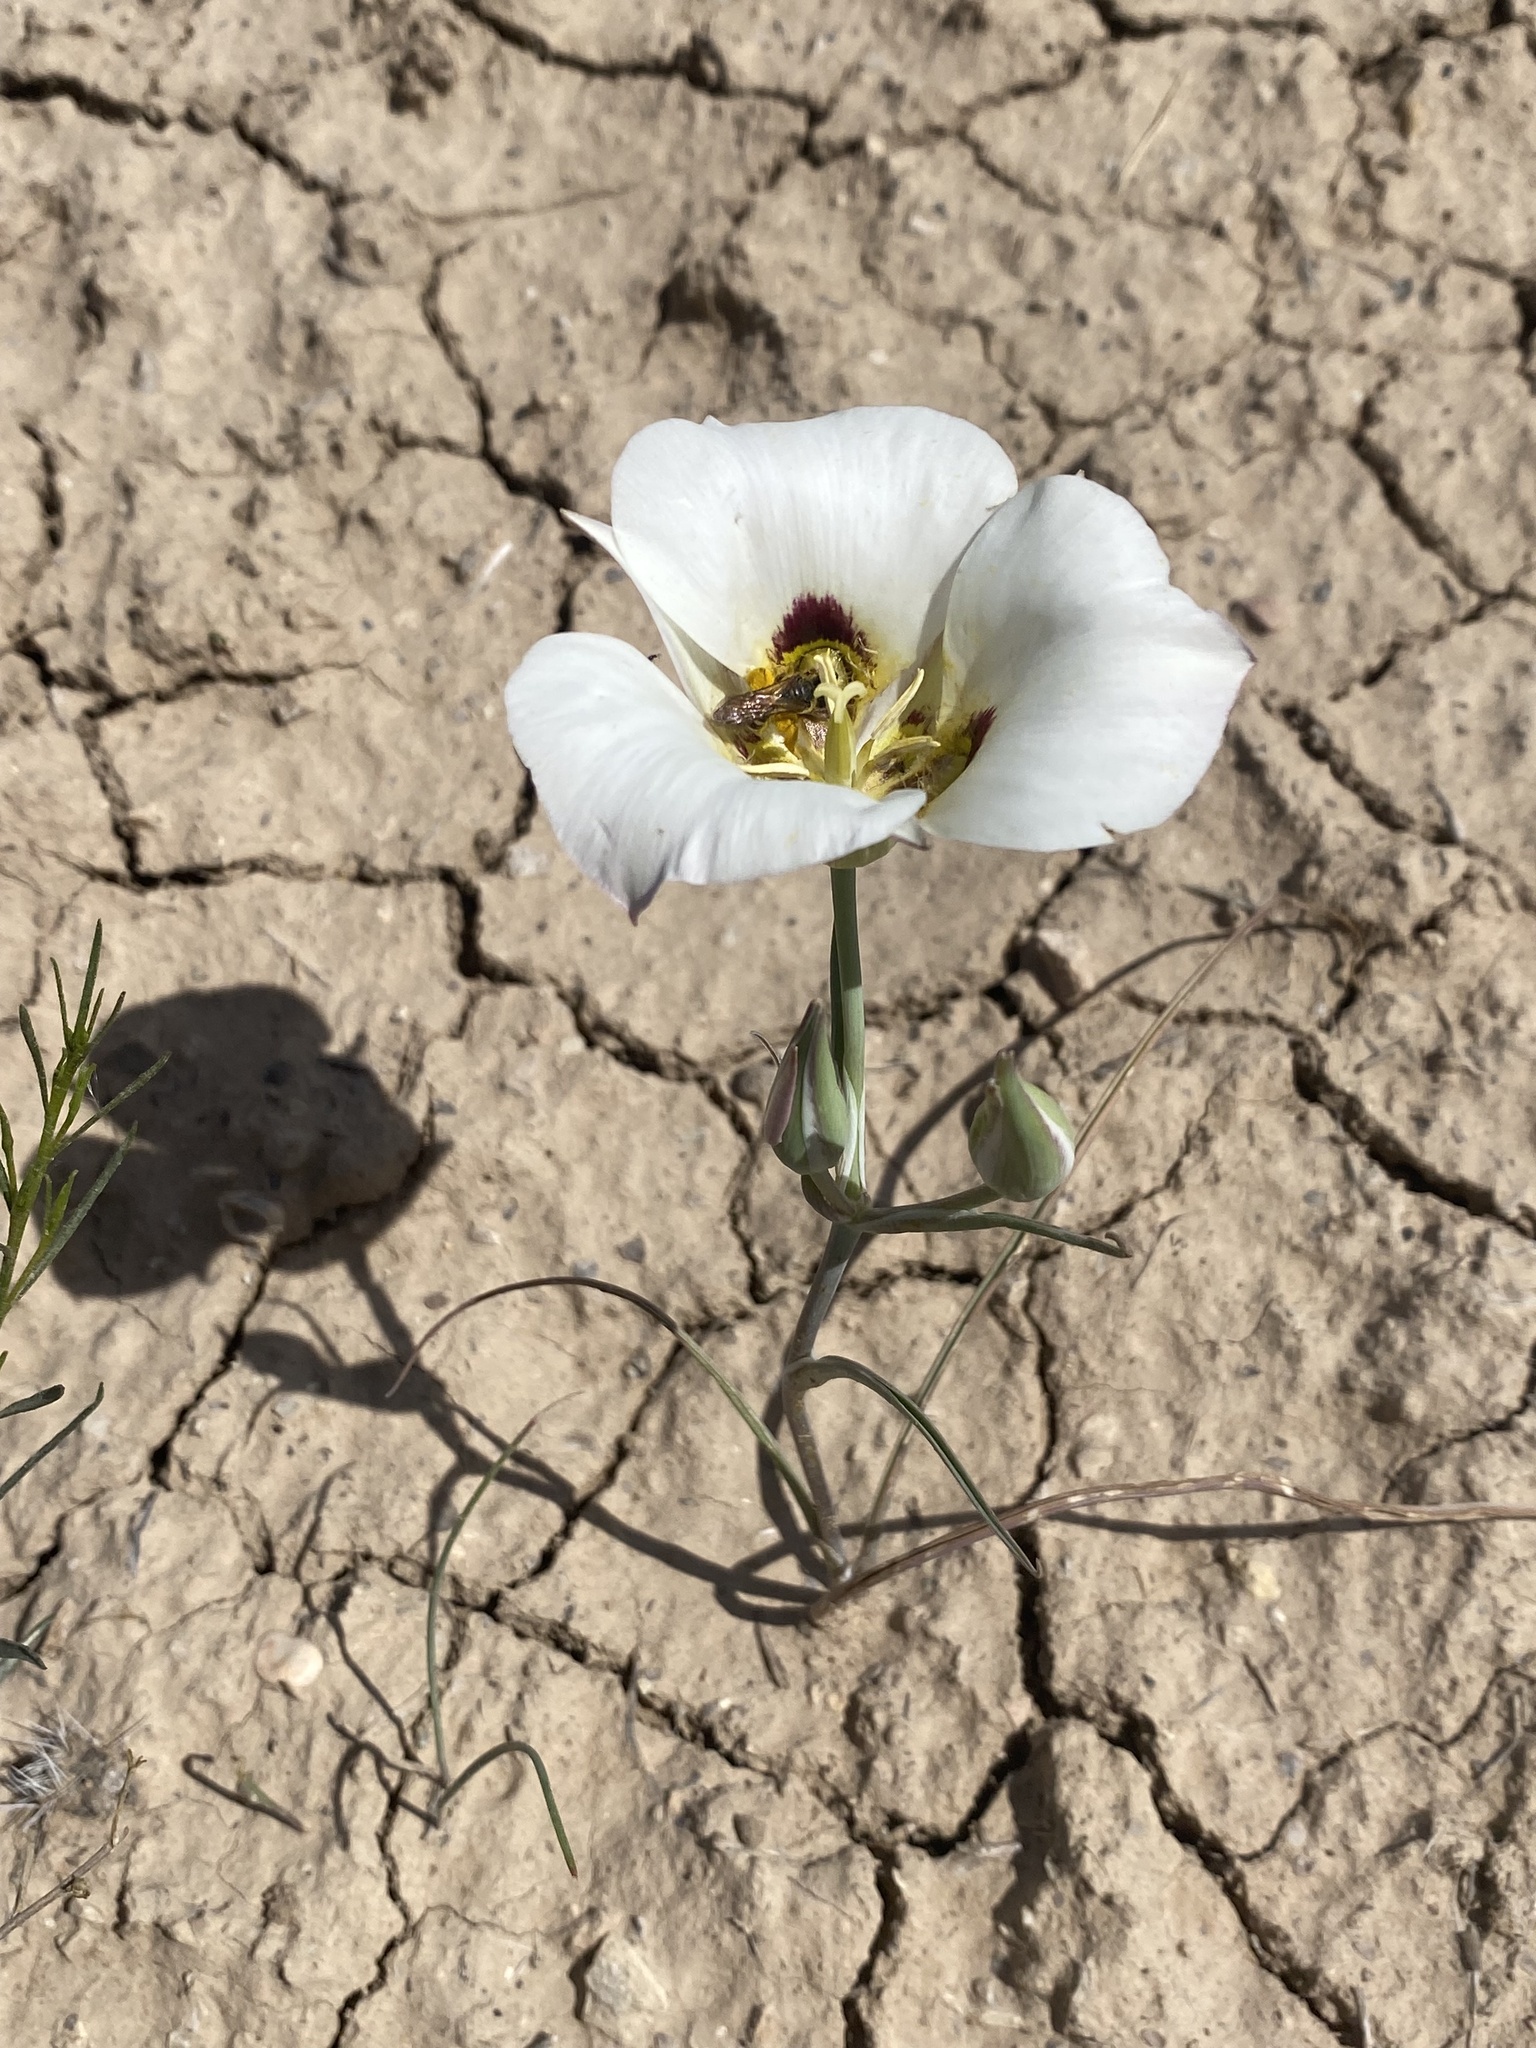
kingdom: Plantae
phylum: Tracheophyta
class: Liliopsida
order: Liliales
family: Liliaceae
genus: Calochortus
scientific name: Calochortus nuttallii
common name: Sego-lily
